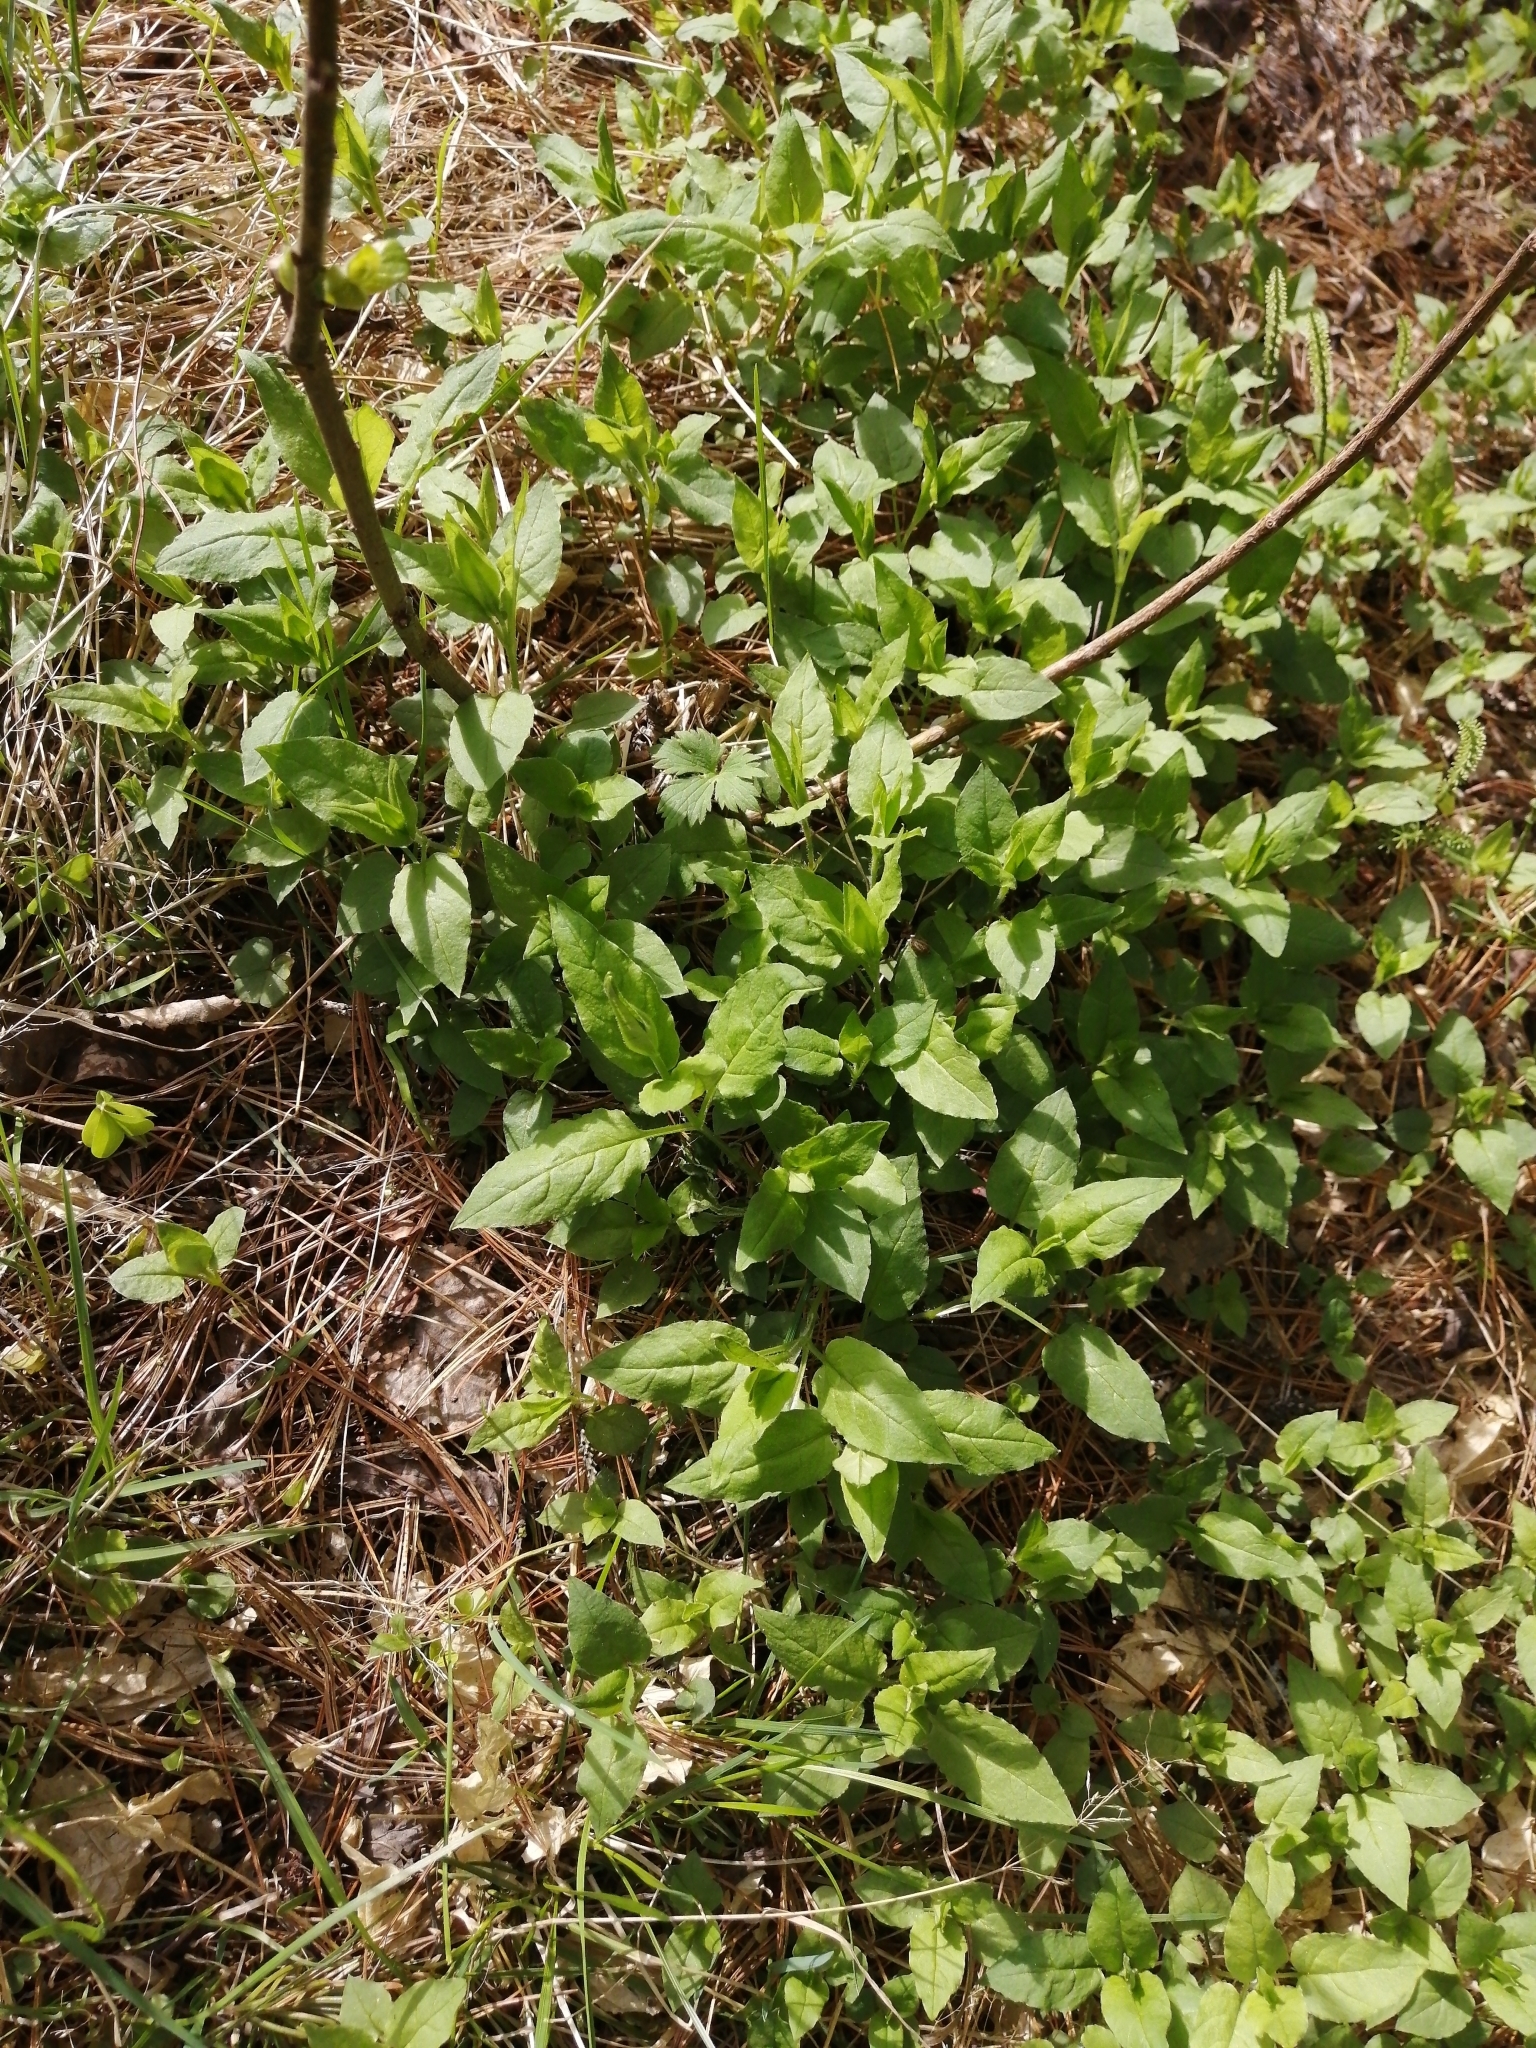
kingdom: Plantae
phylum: Tracheophyta
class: Magnoliopsida
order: Caryophyllales
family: Caryophyllaceae
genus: Stellaria
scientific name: Stellaria bungeana
